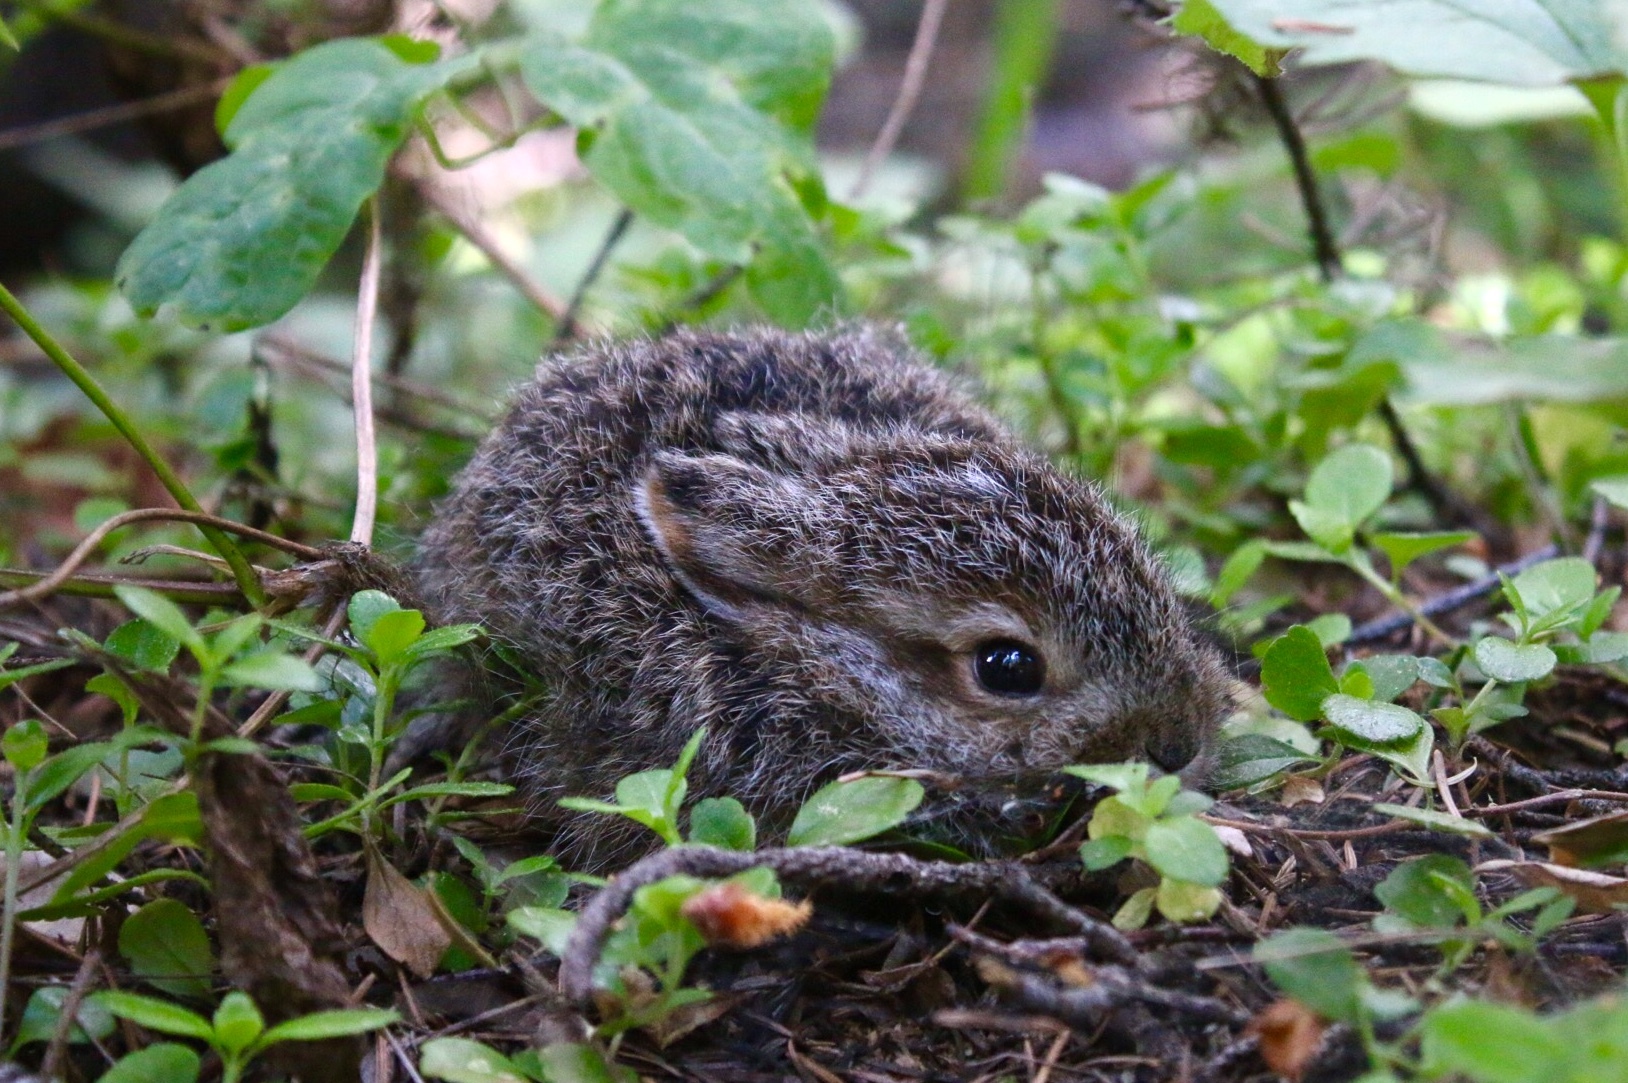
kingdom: Animalia
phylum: Chordata
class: Mammalia
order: Lagomorpha
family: Leporidae
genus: Lepus
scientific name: Lepus americanus
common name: Snowshoe hare
